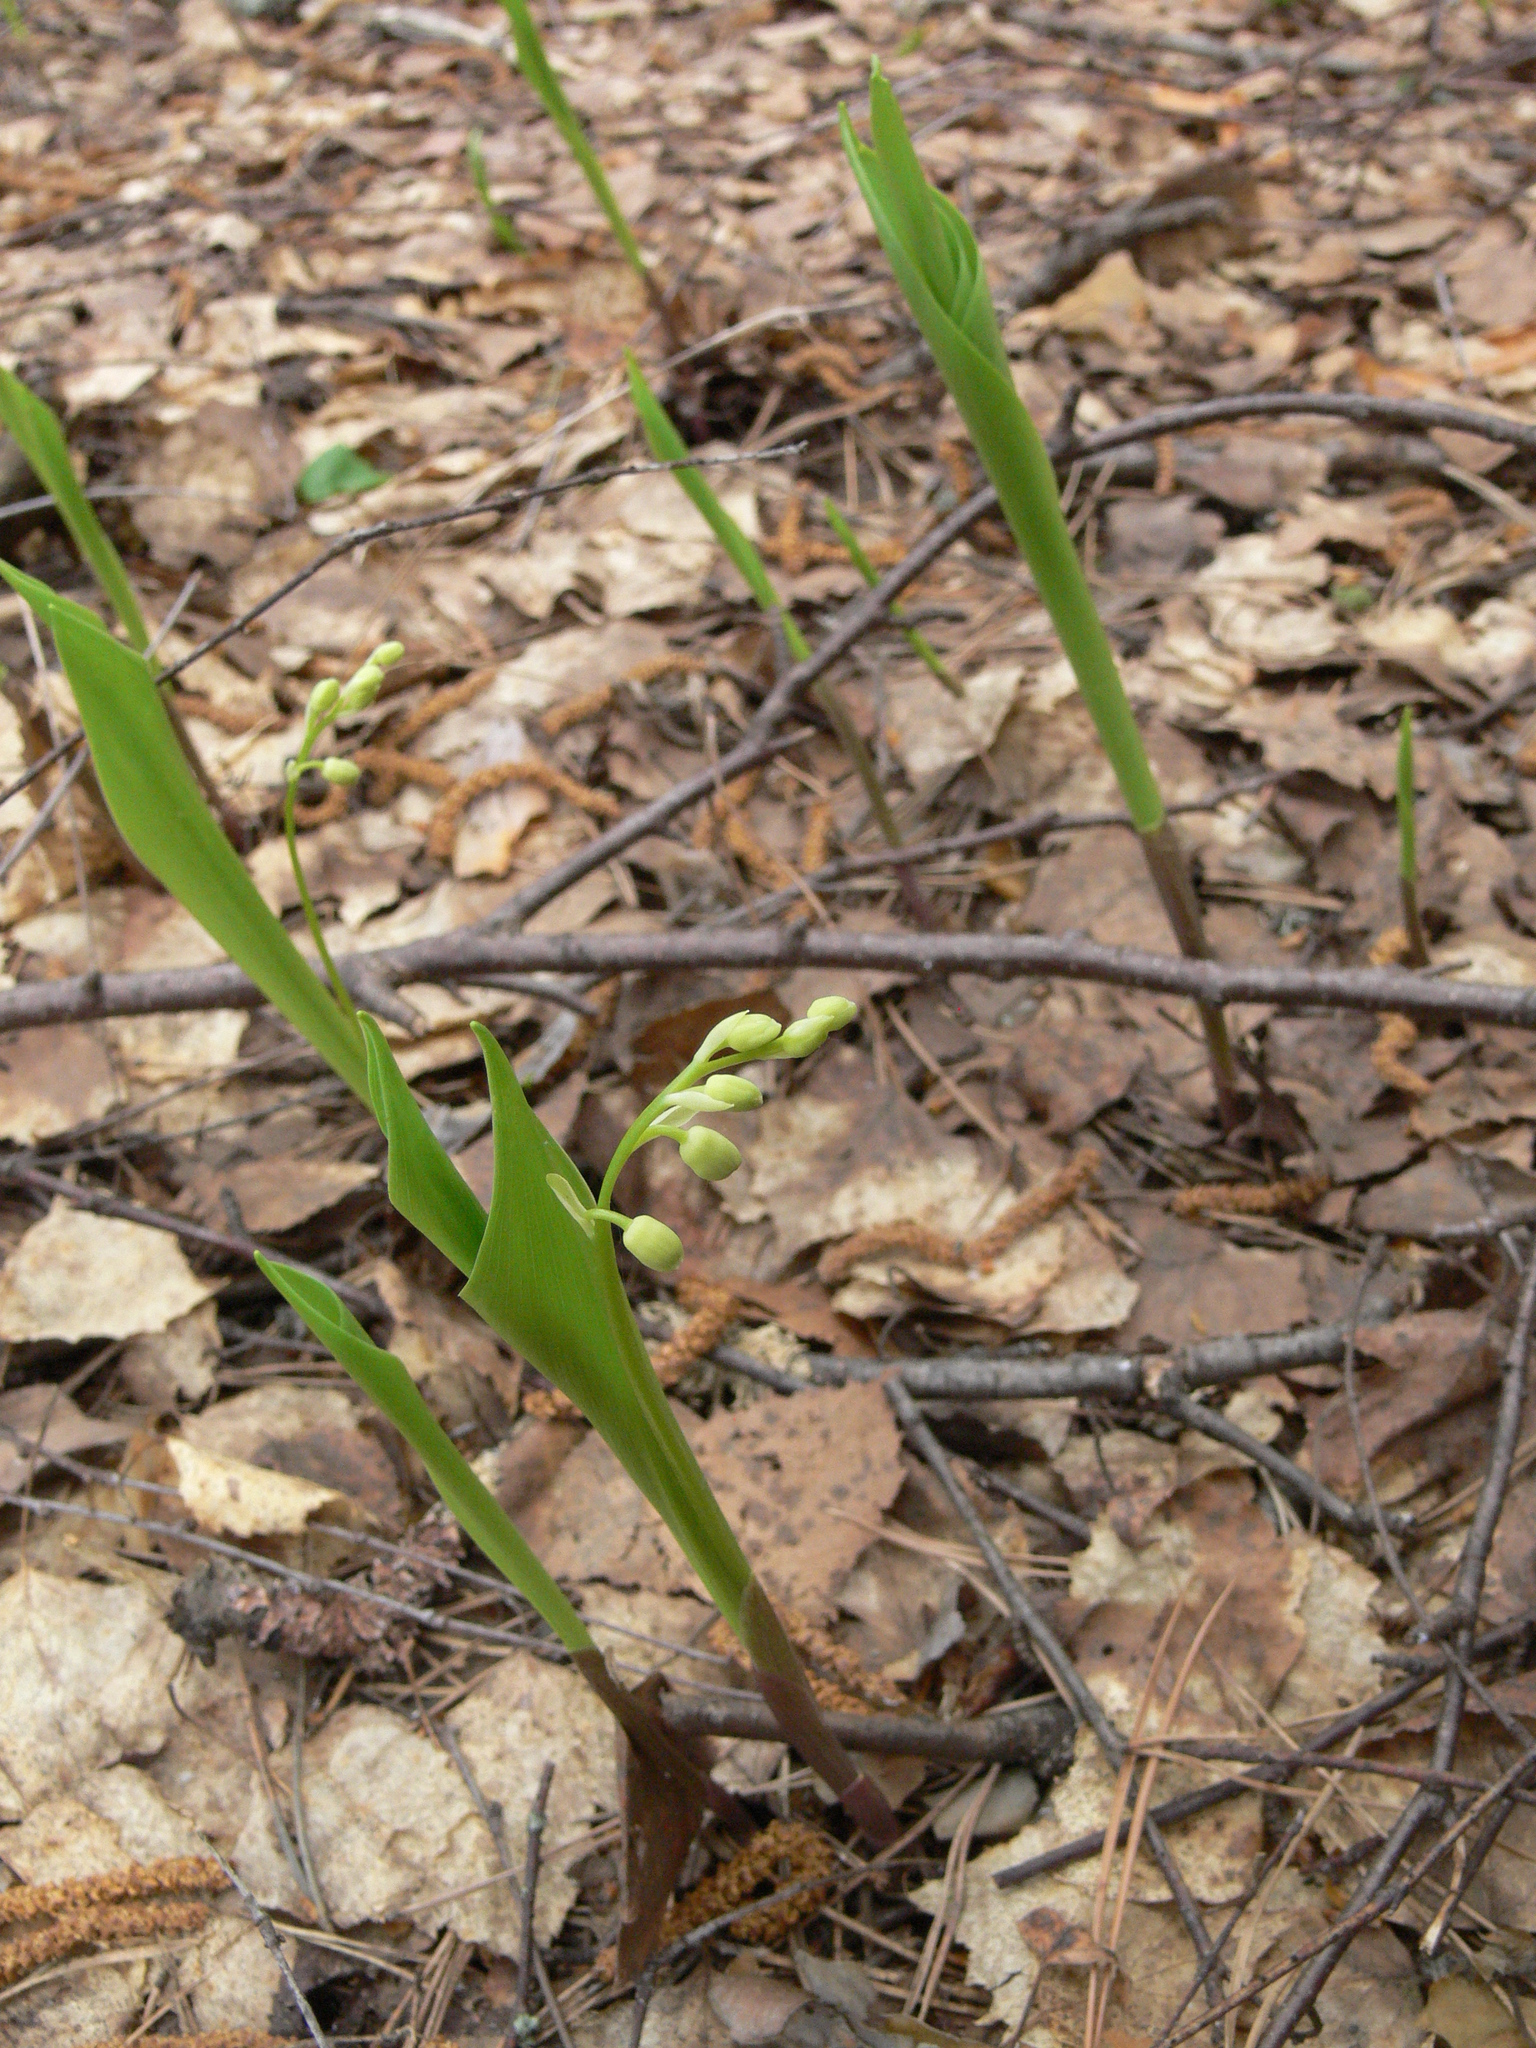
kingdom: Plantae
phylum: Tracheophyta
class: Liliopsida
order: Asparagales
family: Asparagaceae
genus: Convallaria
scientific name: Convallaria majalis
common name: Lily-of-the-valley
